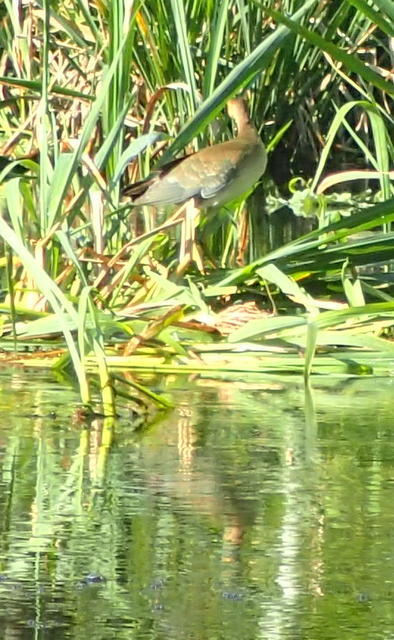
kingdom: Animalia
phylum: Chordata
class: Aves
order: Gruiformes
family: Rallidae
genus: Porphyrio
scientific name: Porphyrio martinica
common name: Purple gallinule
